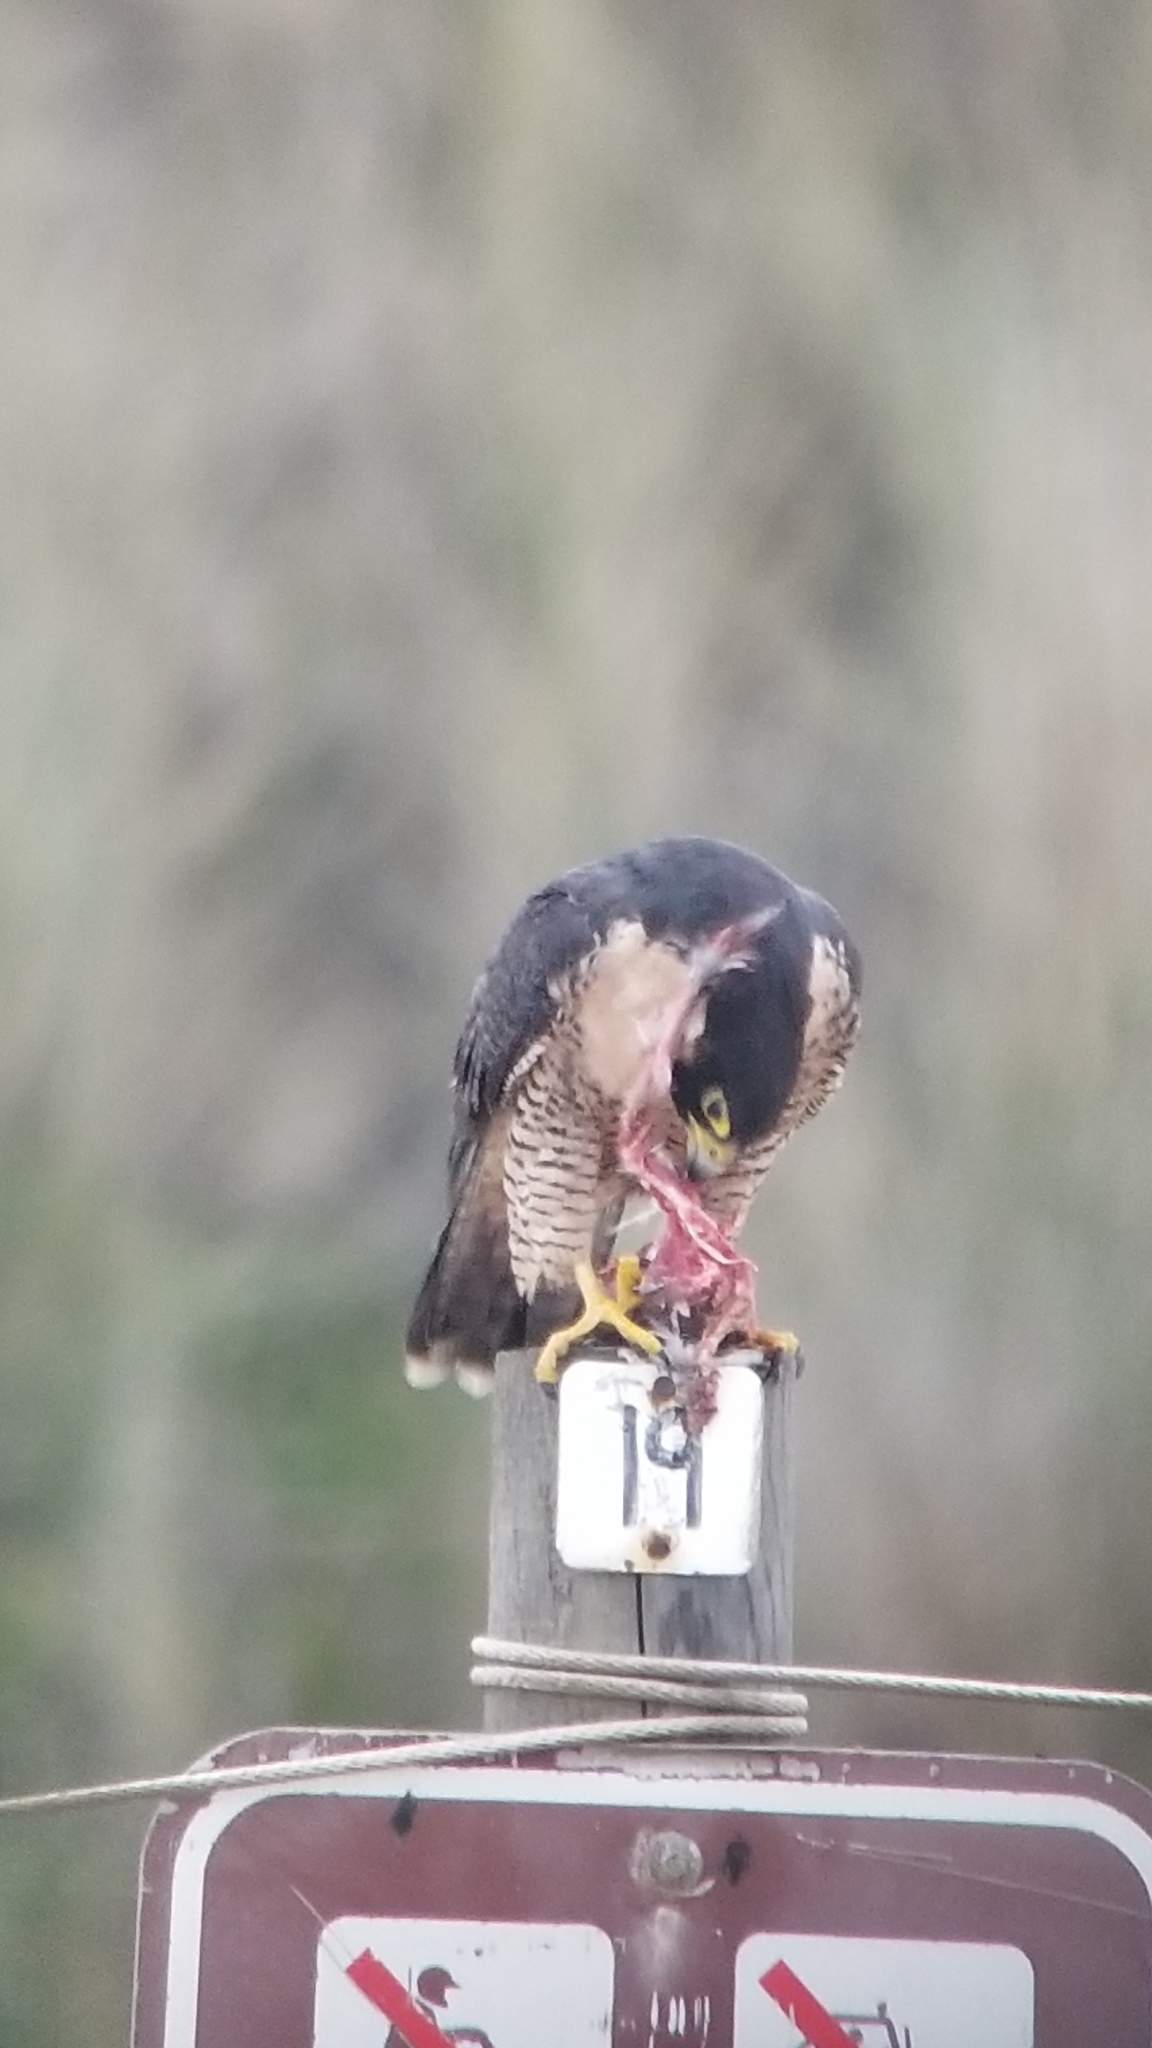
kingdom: Animalia
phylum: Chordata
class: Aves
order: Falconiformes
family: Falconidae
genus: Falco
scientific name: Falco peregrinus
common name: Peregrine falcon
